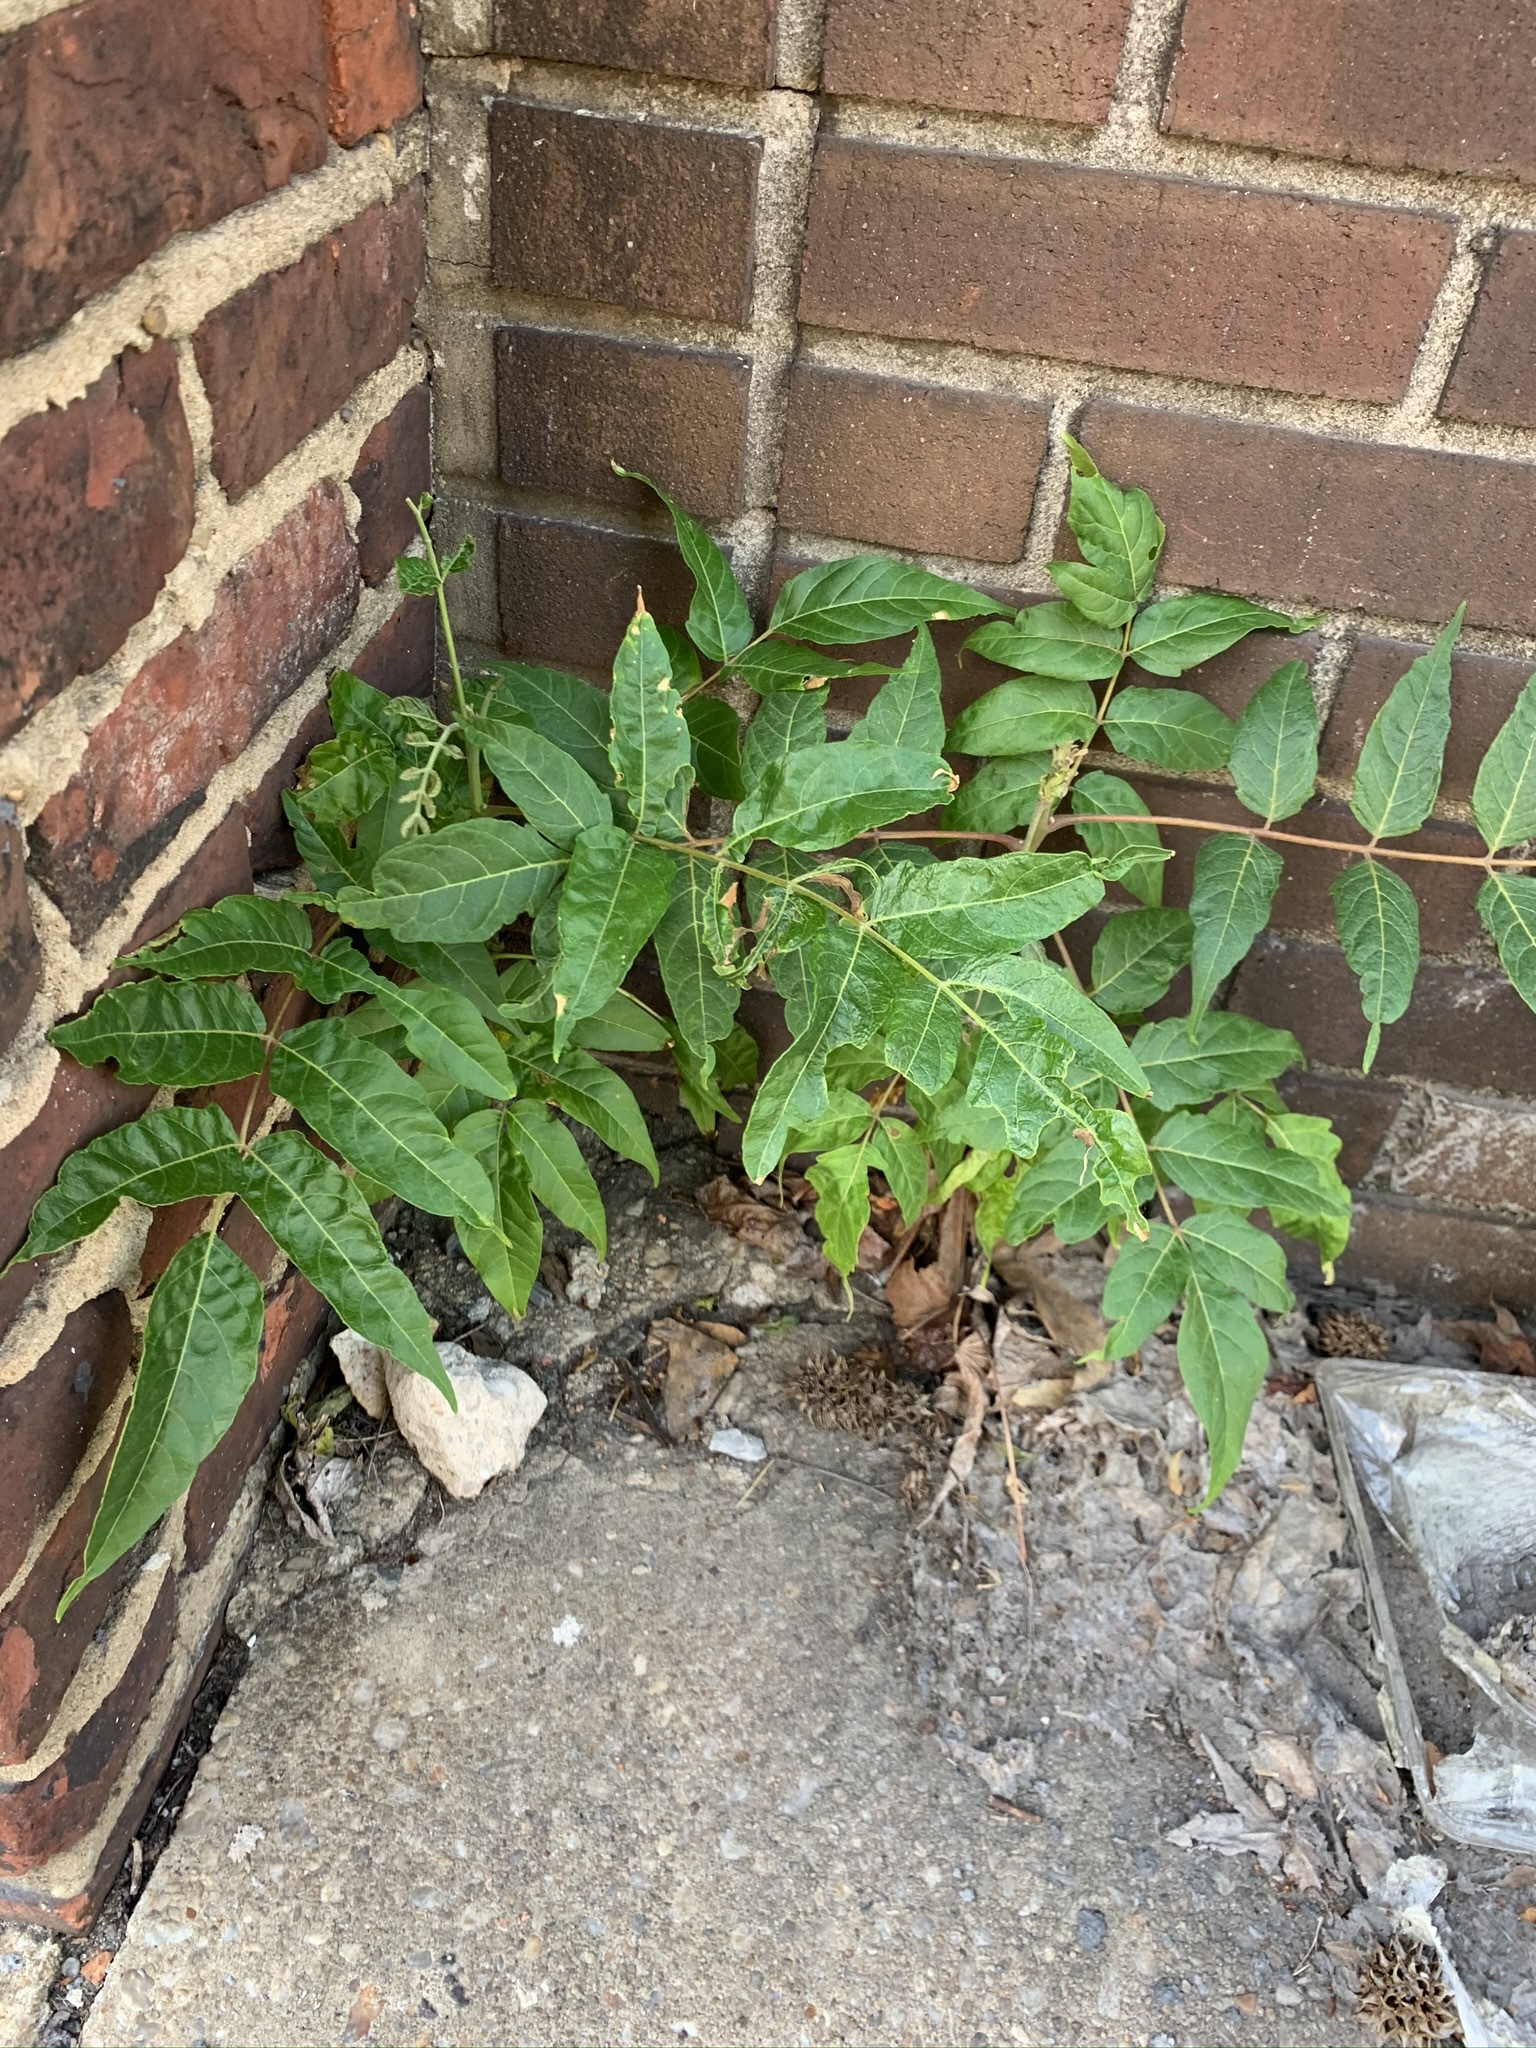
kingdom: Plantae
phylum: Tracheophyta
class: Magnoliopsida
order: Sapindales
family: Simaroubaceae
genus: Ailanthus
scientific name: Ailanthus altissima
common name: Tree-of-heaven
